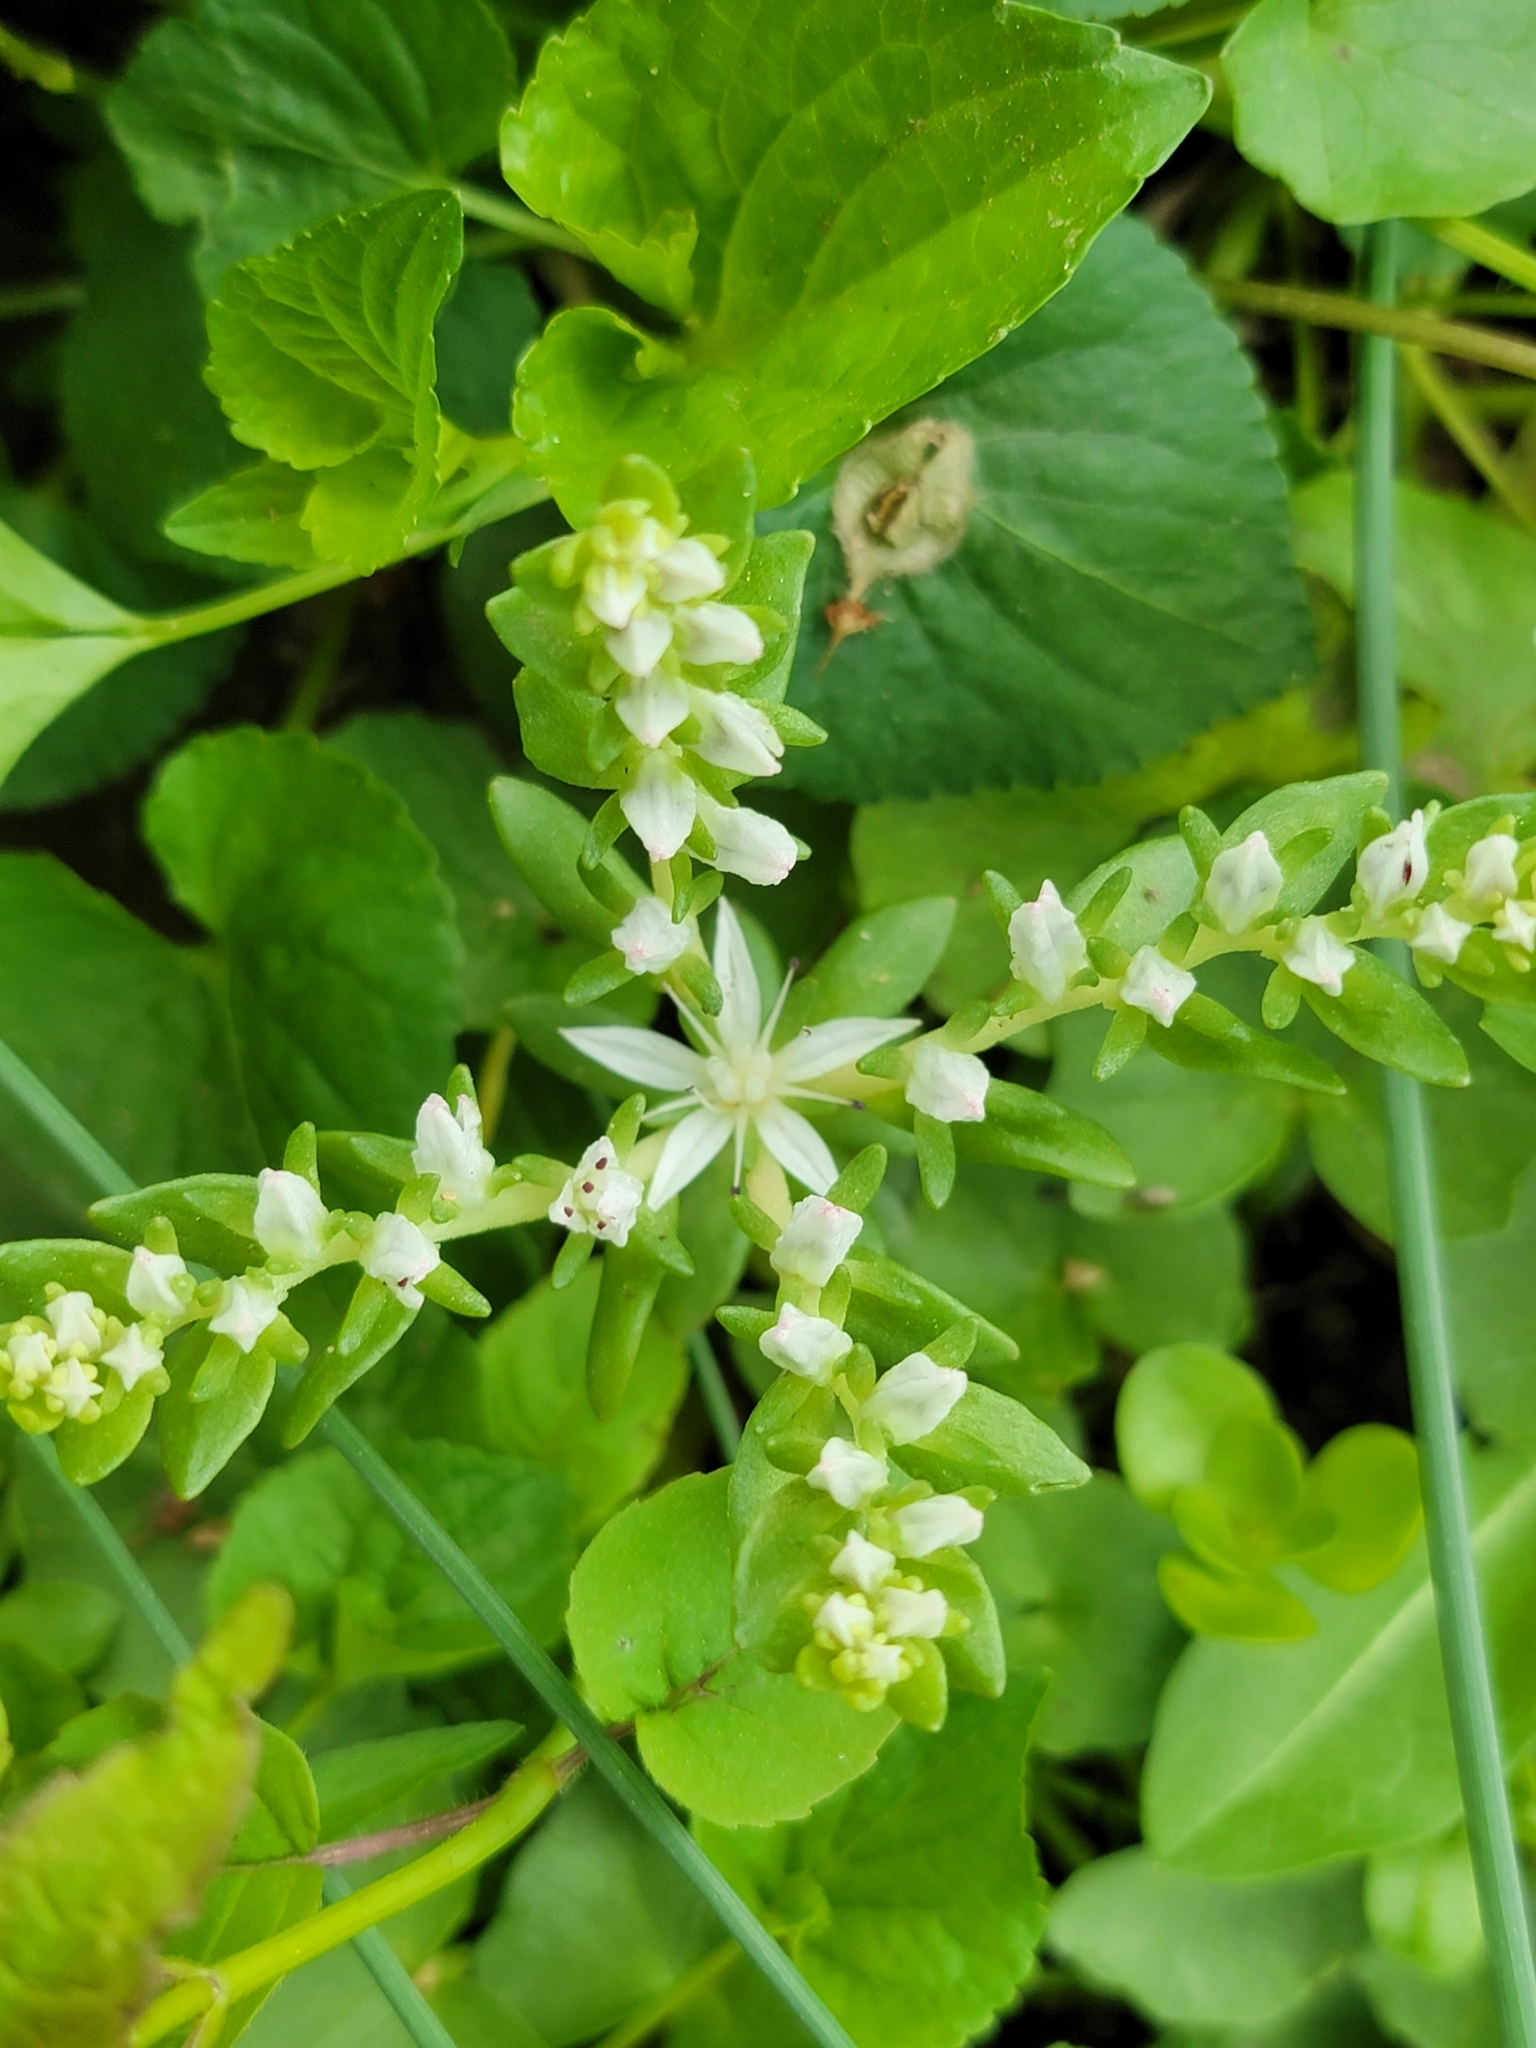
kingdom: Plantae
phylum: Tracheophyta
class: Magnoliopsida
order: Saxifragales
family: Crassulaceae
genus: Sedum
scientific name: Sedum ternatum
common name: Wild stonecrop
